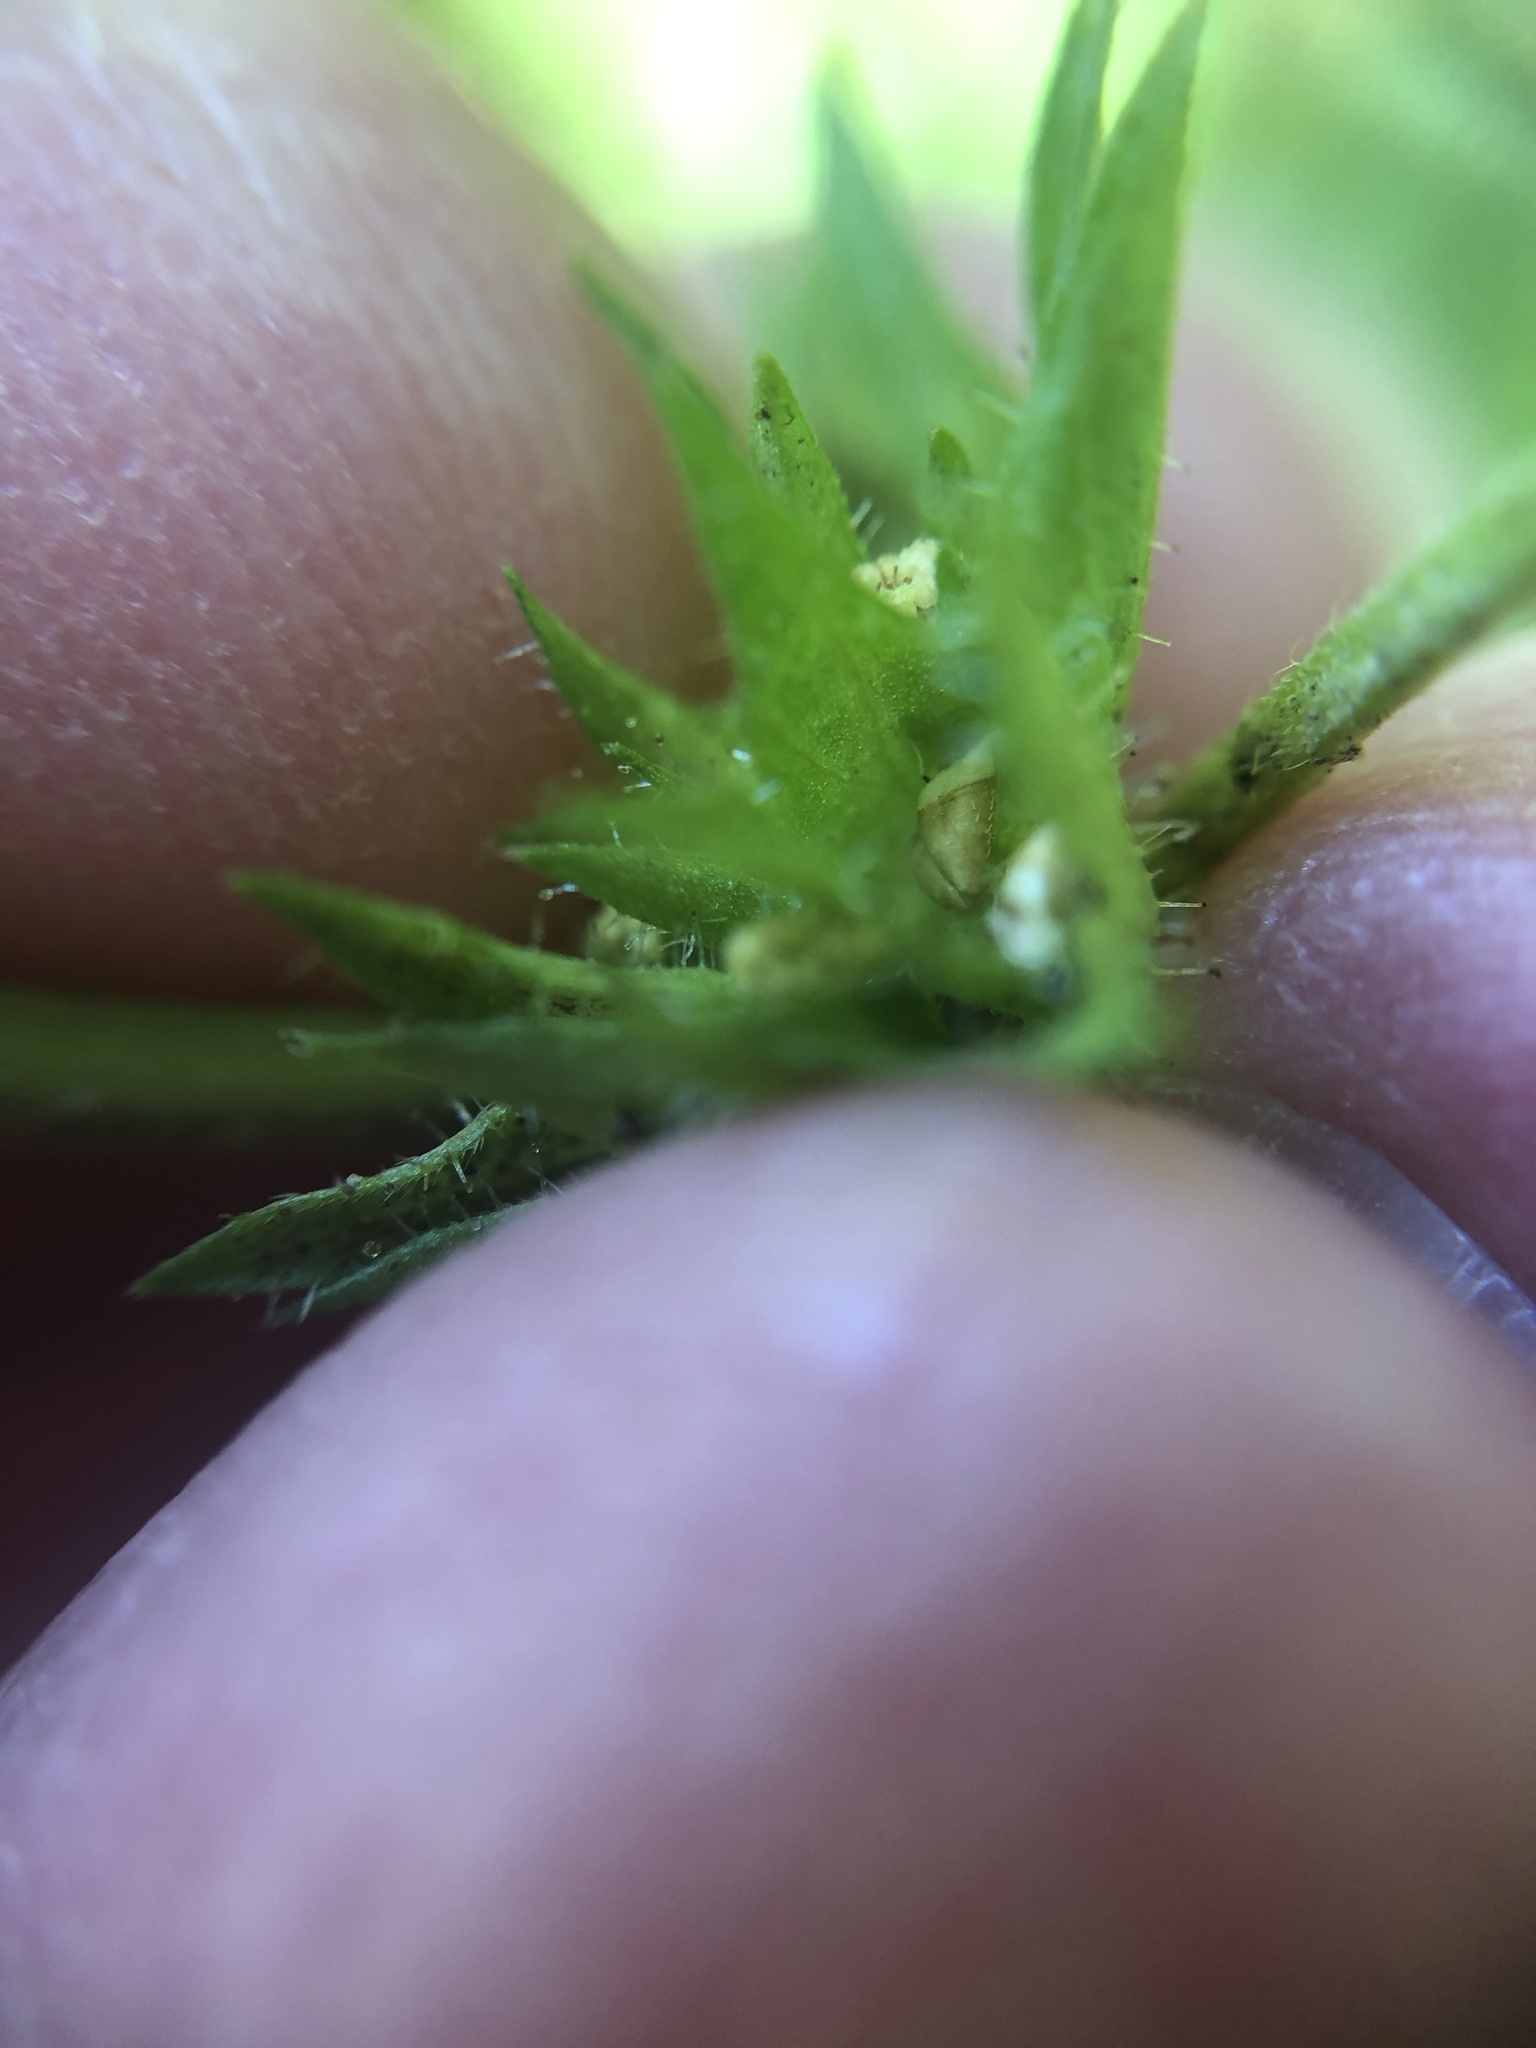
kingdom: Plantae
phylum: Tracheophyta
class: Magnoliopsida
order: Malpighiales
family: Euphorbiaceae
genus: Acalypha
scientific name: Acalypha rhomboidea
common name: Rhombic copperleaf
